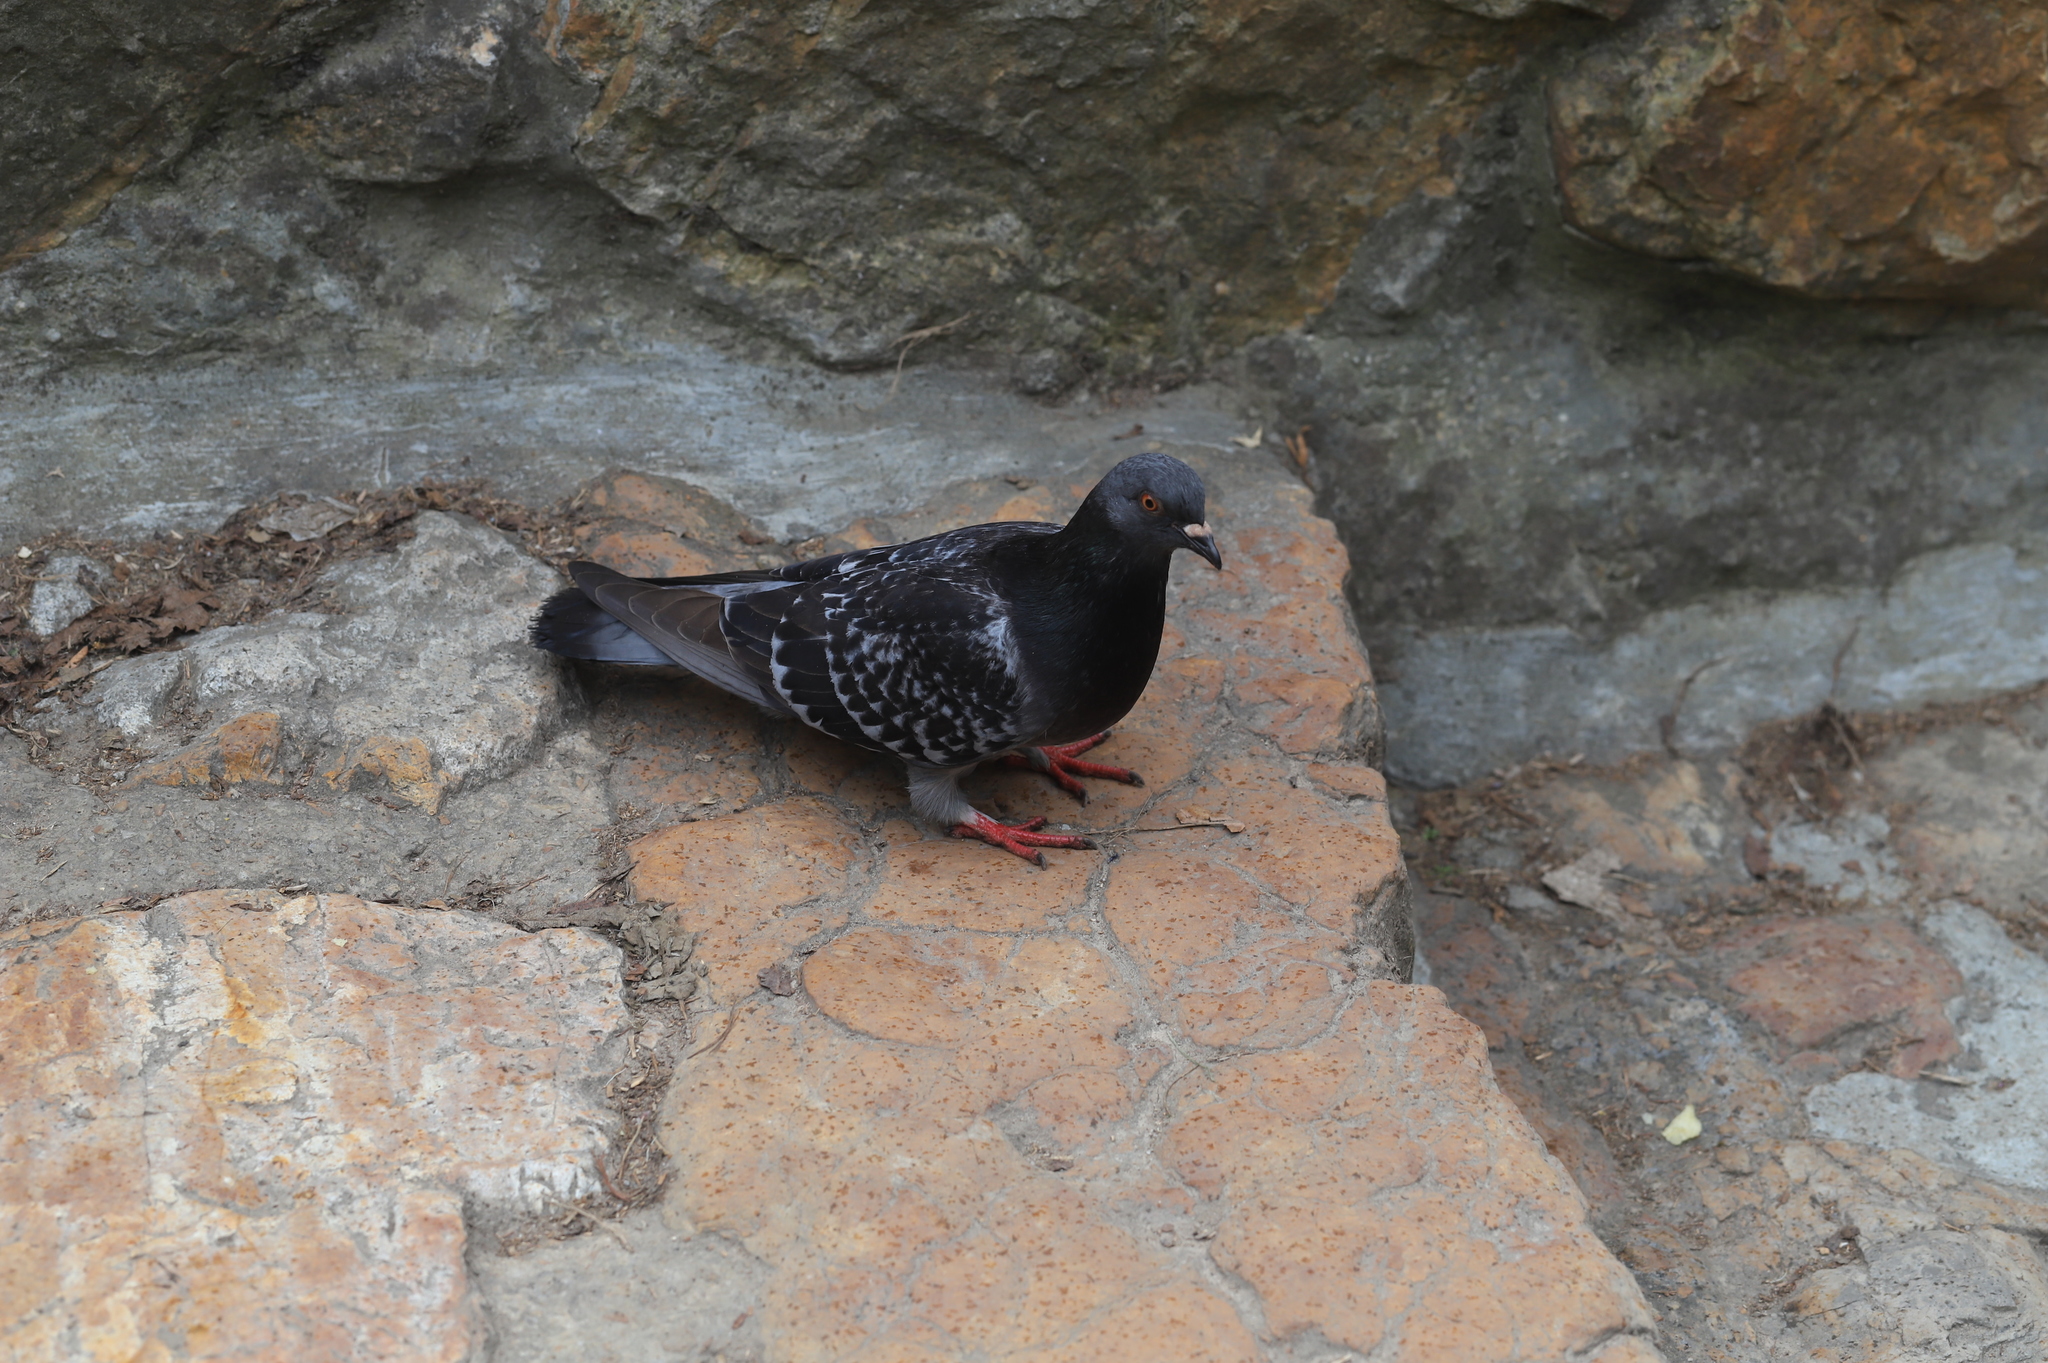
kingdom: Animalia
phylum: Chordata
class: Aves
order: Columbiformes
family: Columbidae
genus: Columba
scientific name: Columba livia
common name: Rock pigeon
